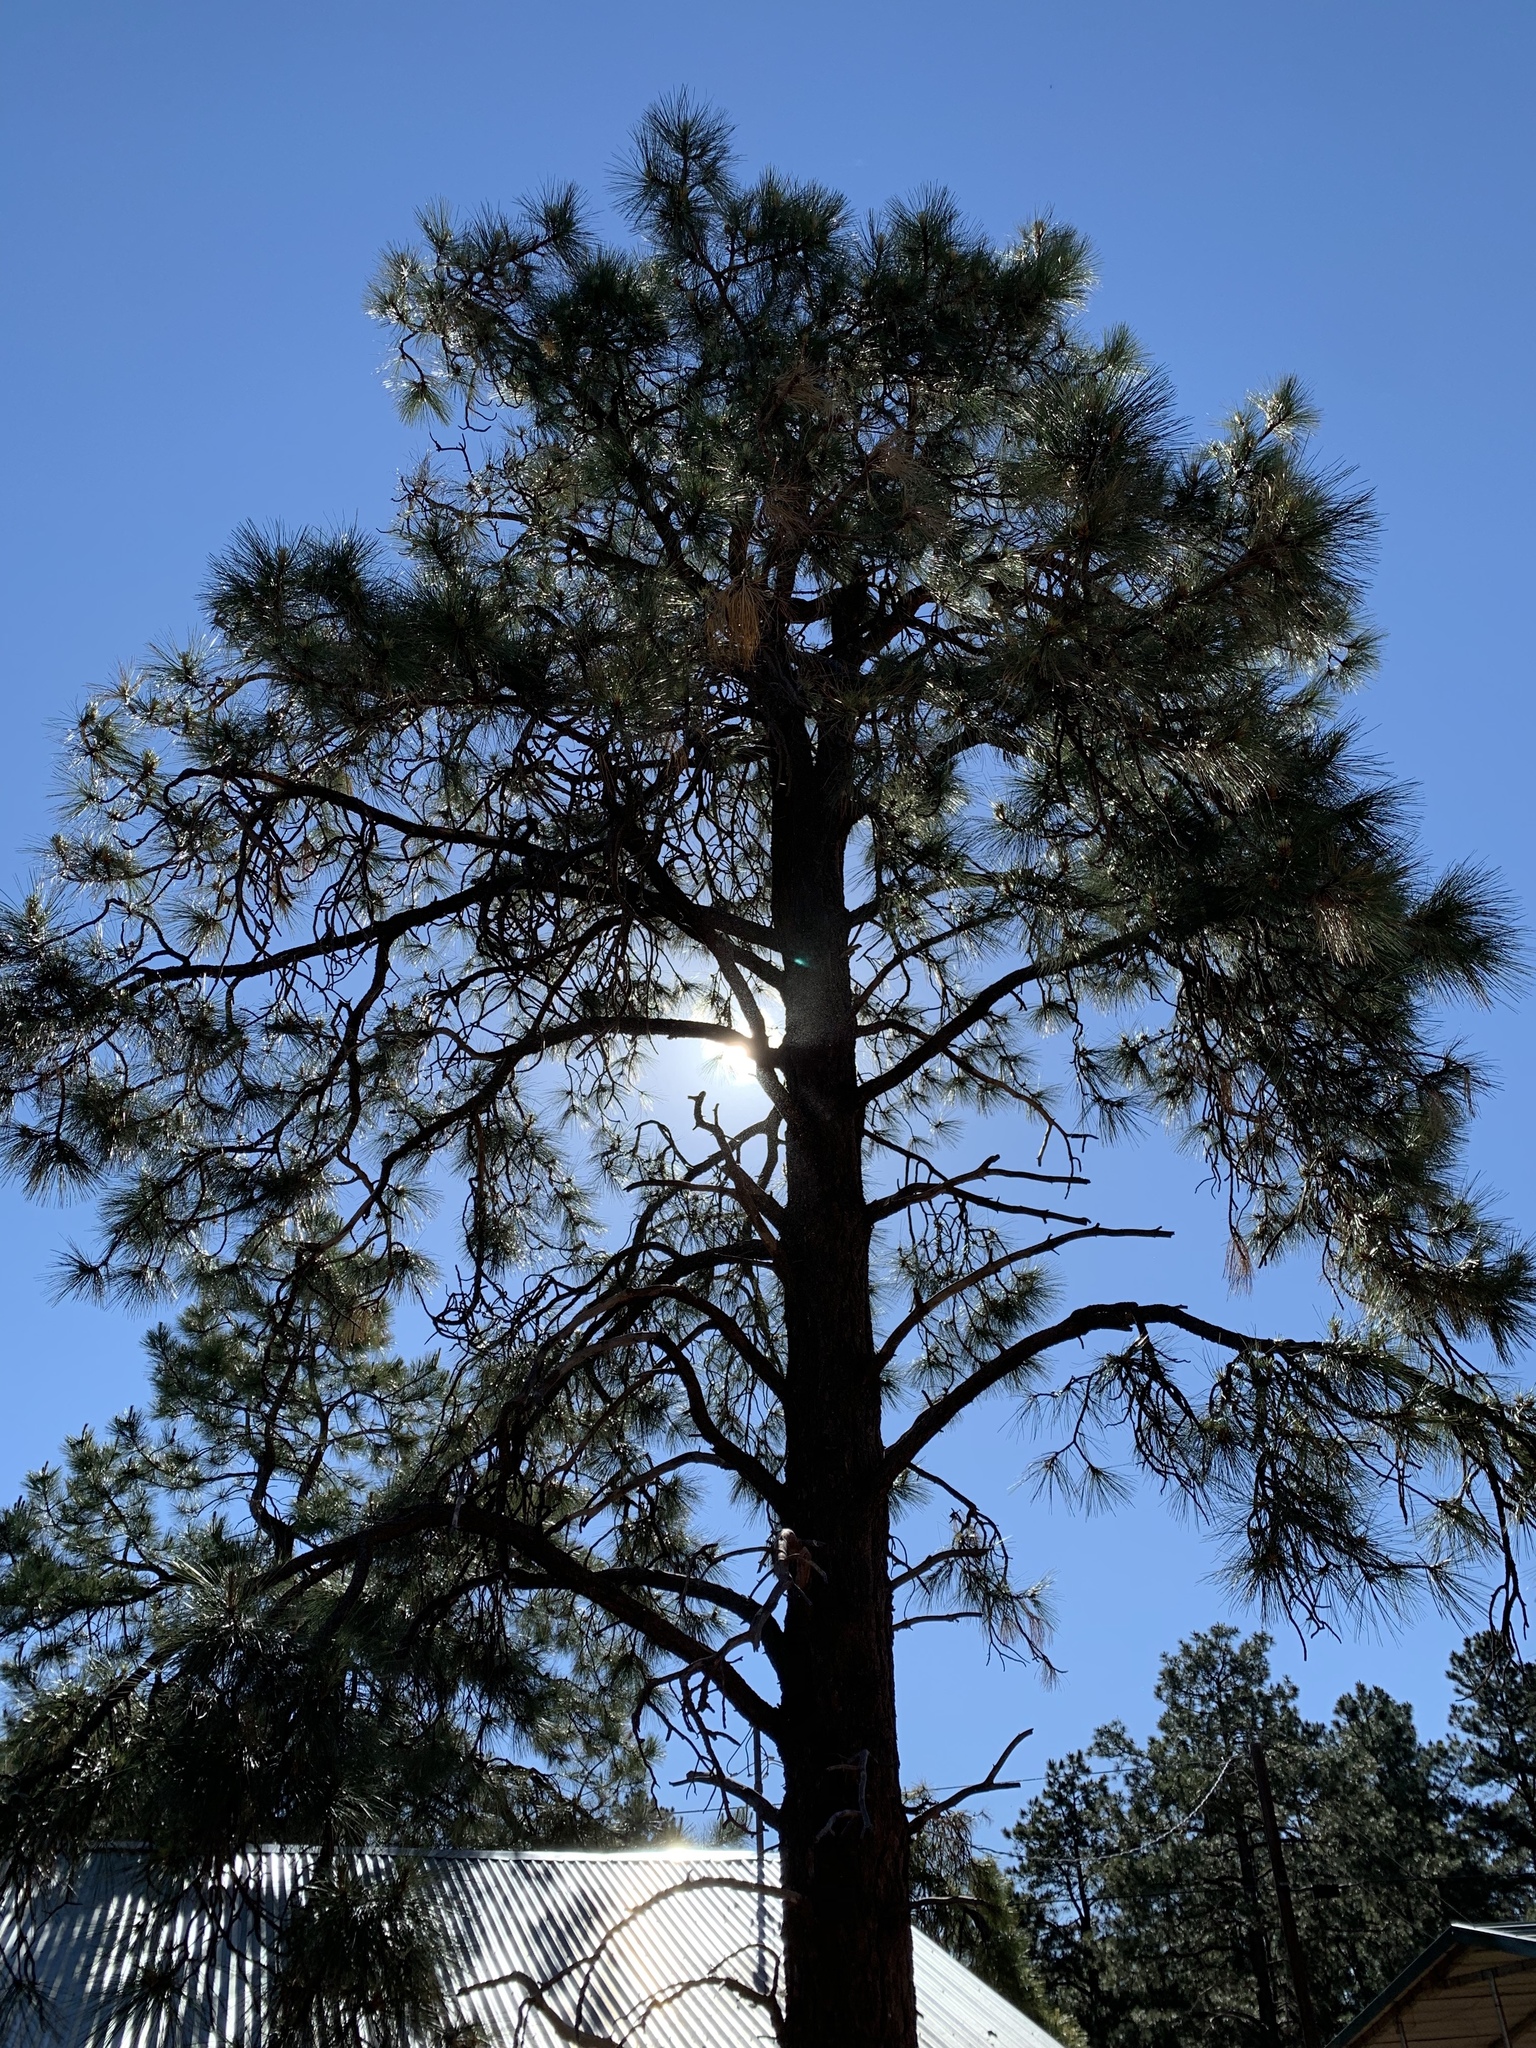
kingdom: Plantae
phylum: Tracheophyta
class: Pinopsida
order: Pinales
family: Pinaceae
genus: Pinus
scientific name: Pinus ponderosa
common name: Western yellow-pine
